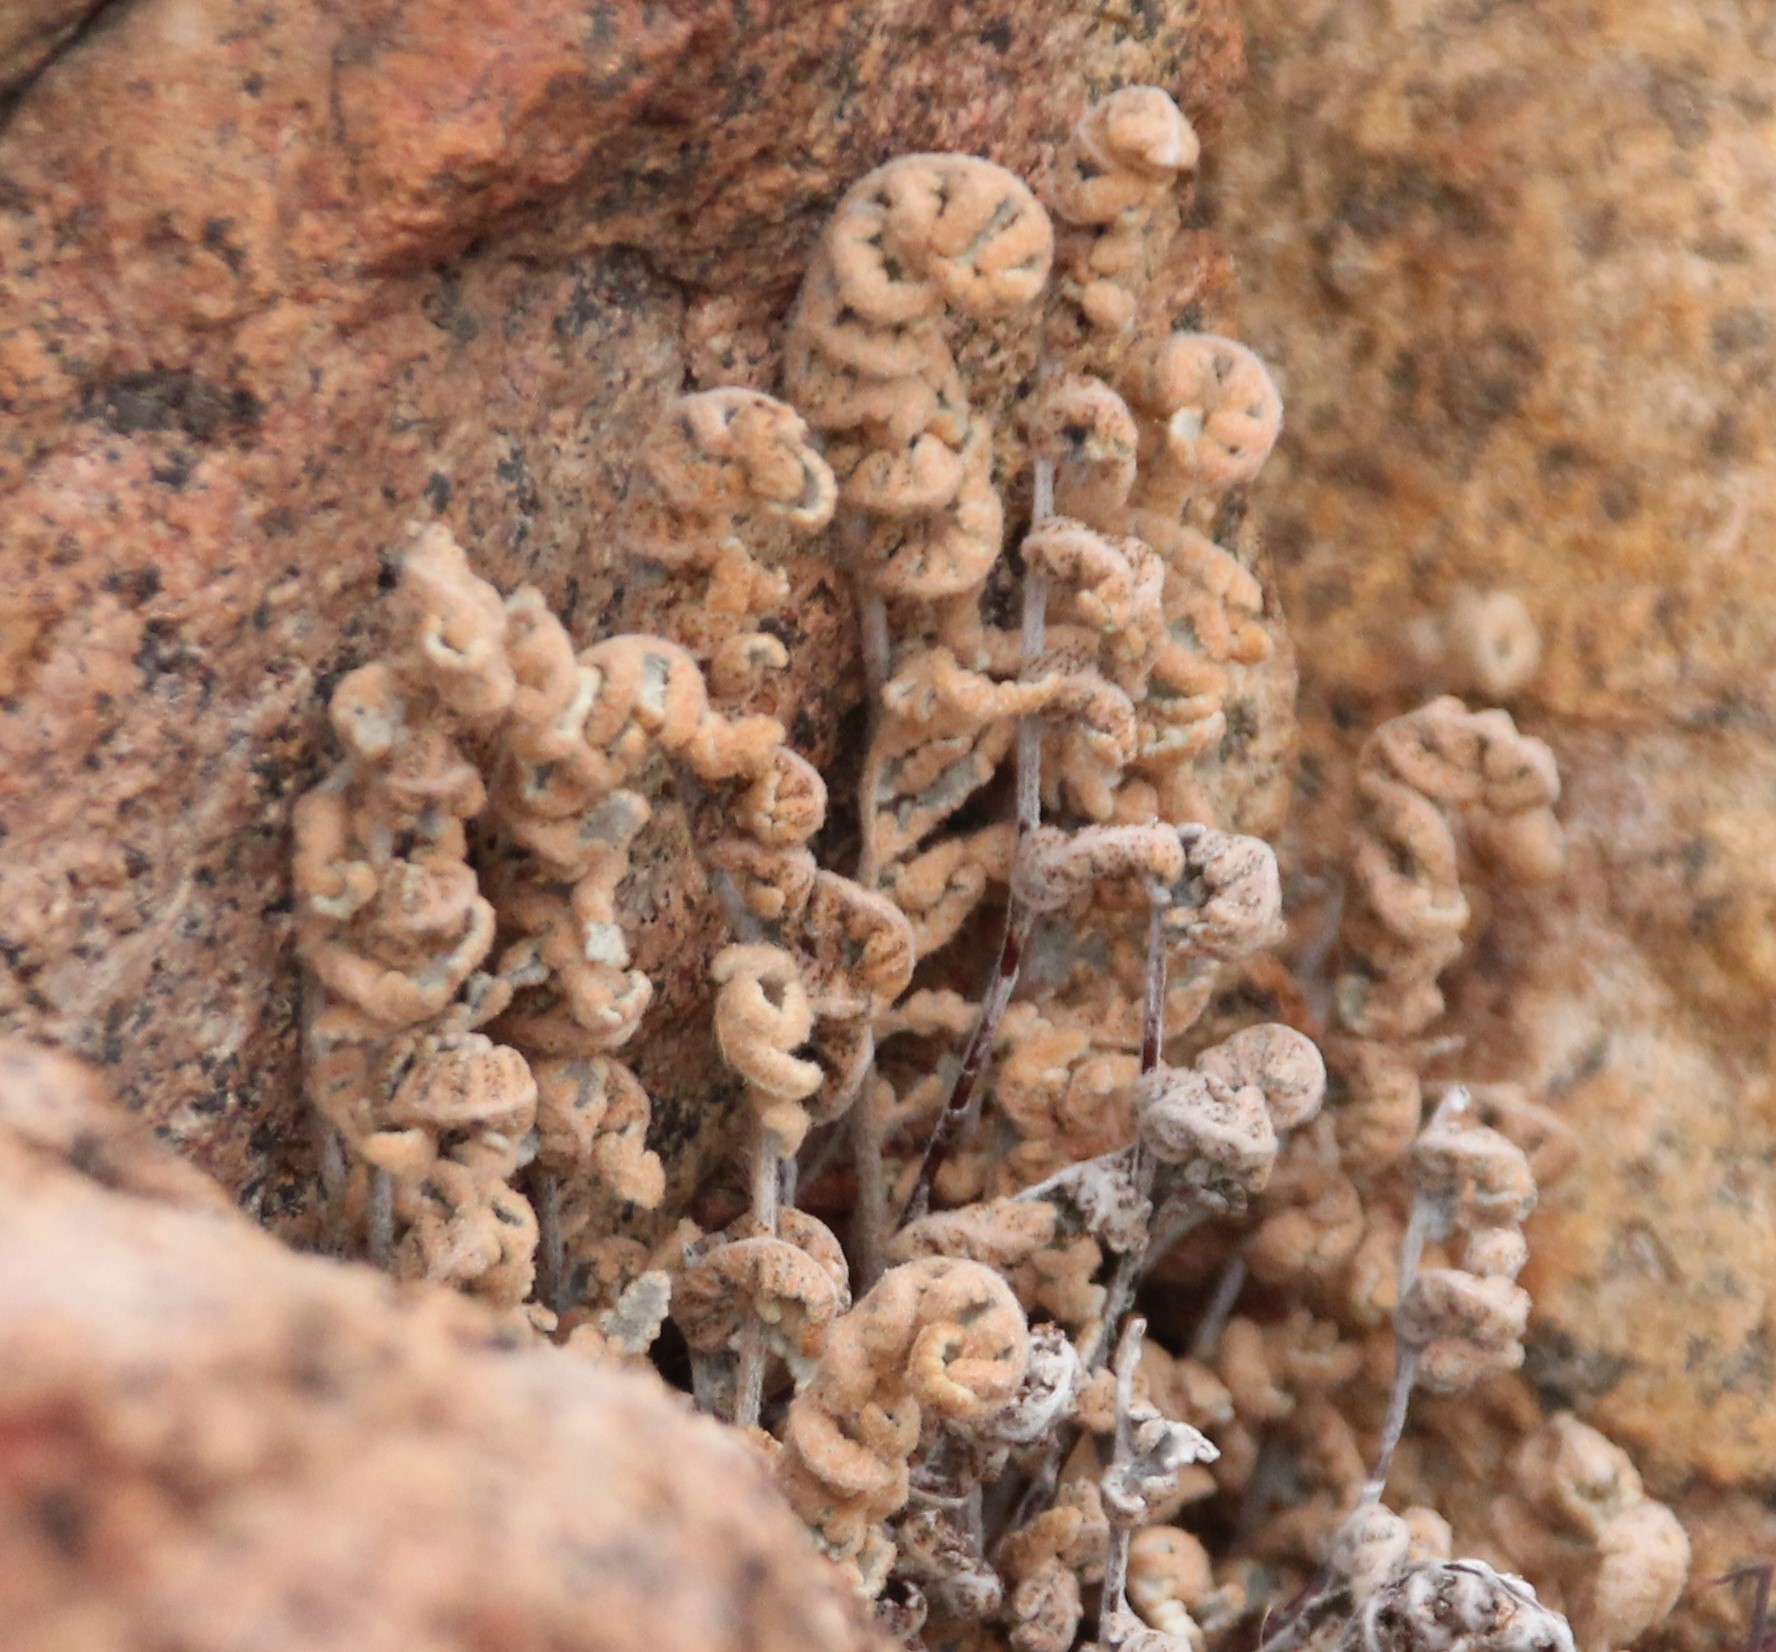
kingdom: Plantae
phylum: Tracheophyta
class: Polypodiopsida
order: Polypodiales
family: Pteridaceae
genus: Myriopteris
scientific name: Myriopteris newberryi
